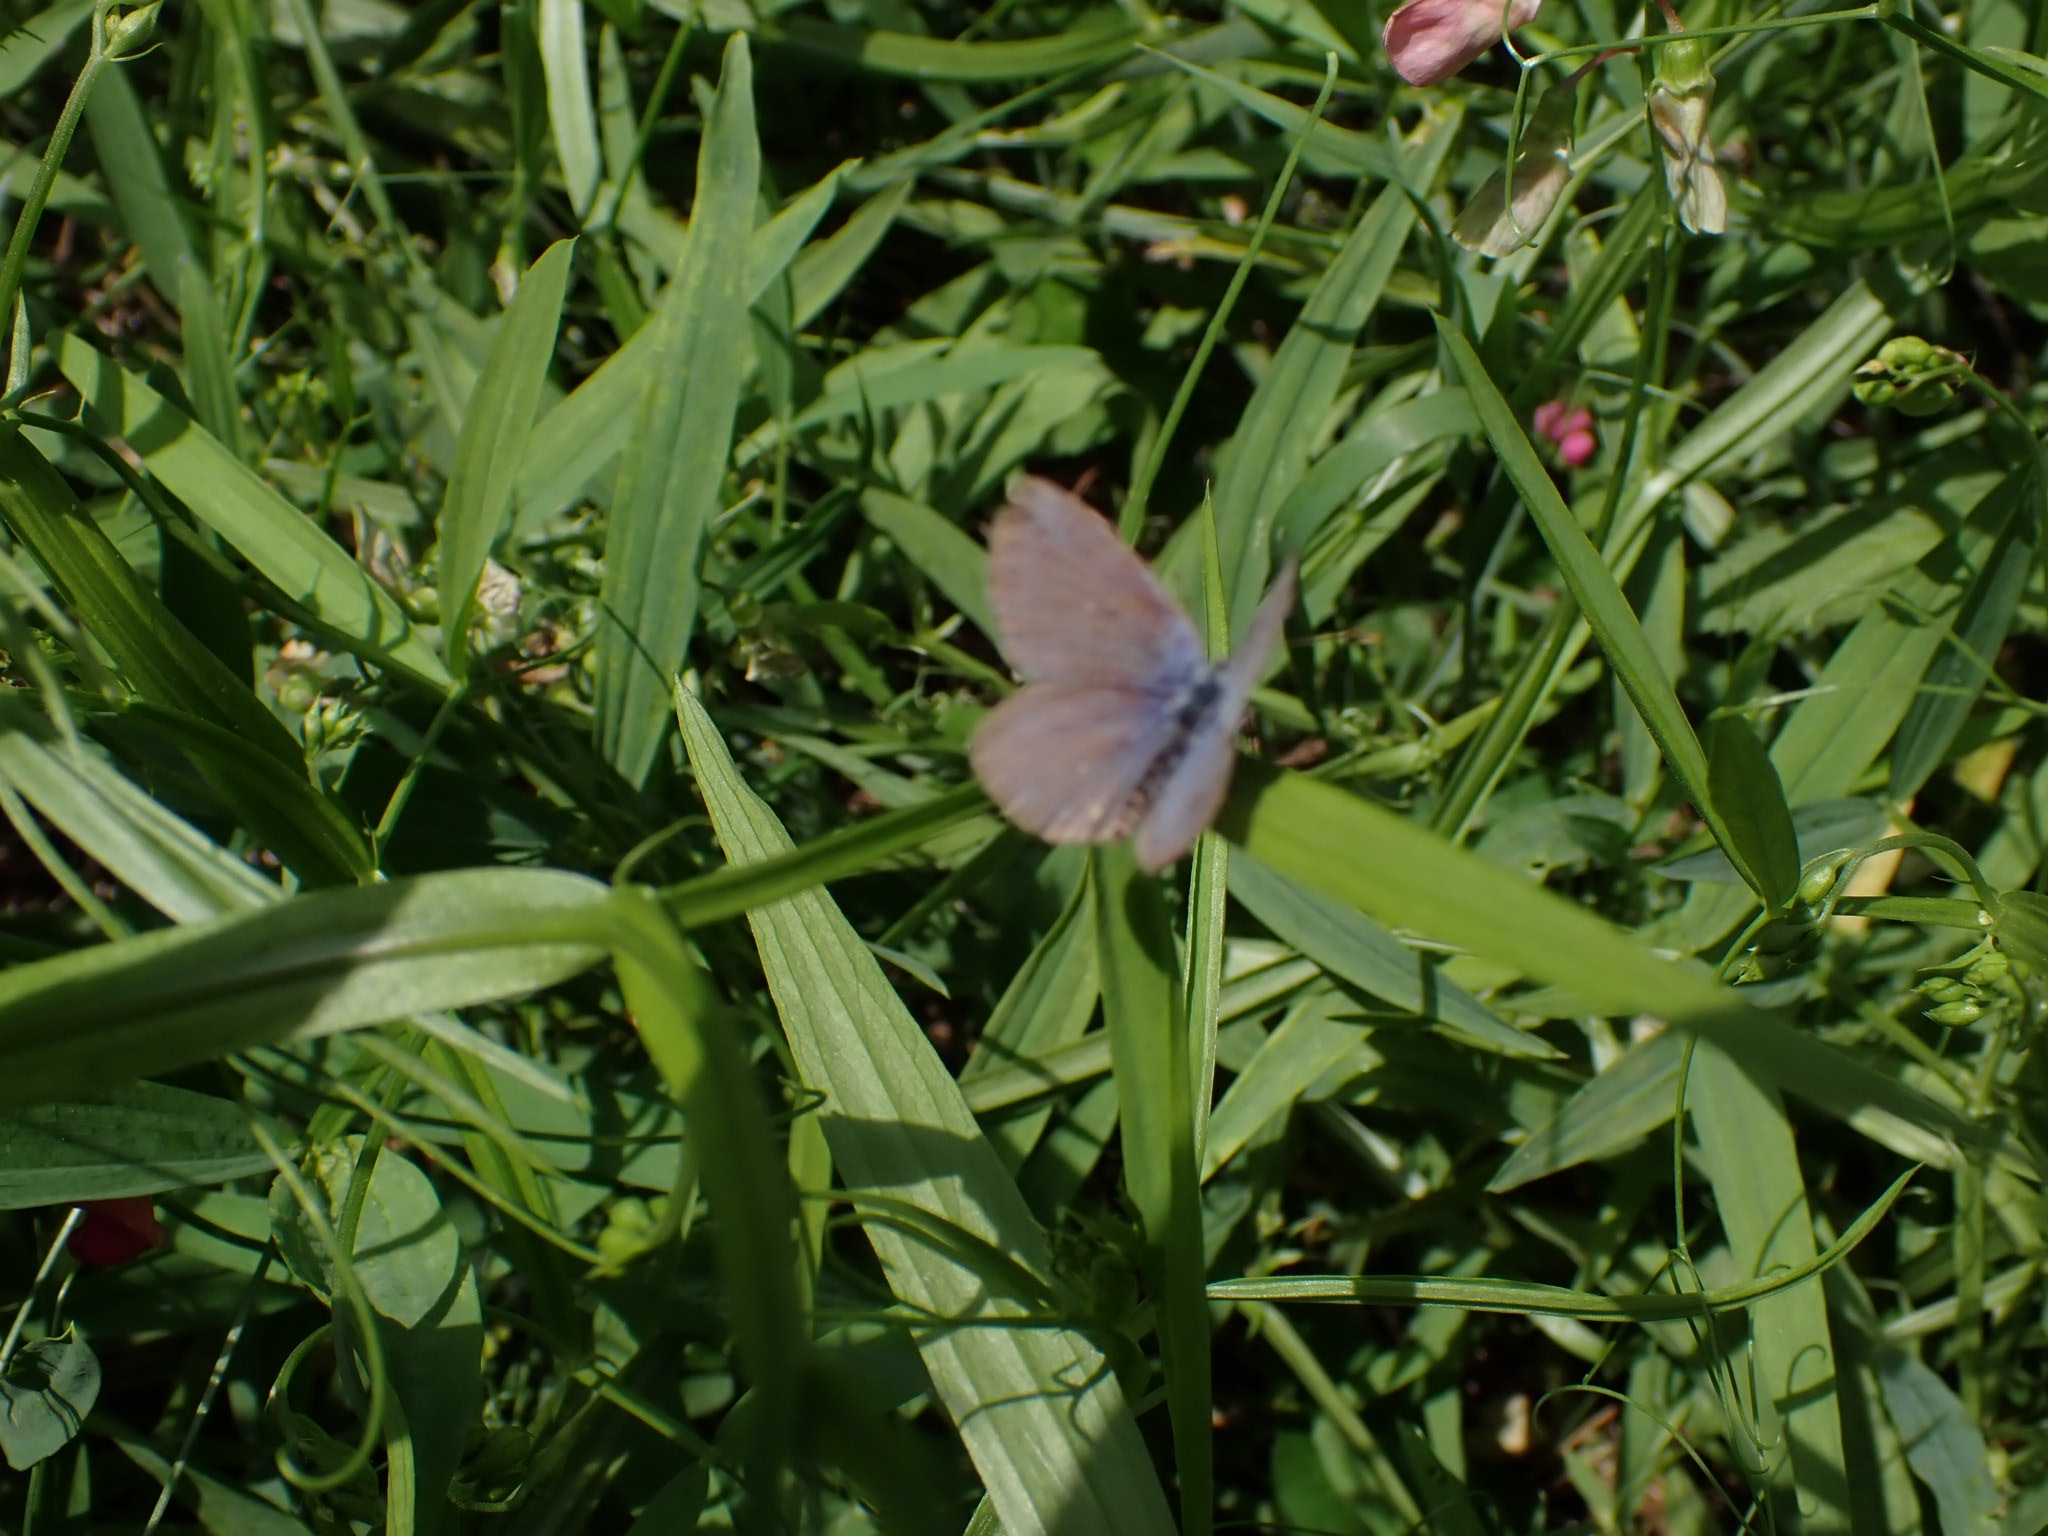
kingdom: Animalia
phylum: Arthropoda
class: Insecta
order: Lepidoptera
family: Lycaenidae
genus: Cyaniris
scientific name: Cyaniris semiargus
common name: Mazarine blue
